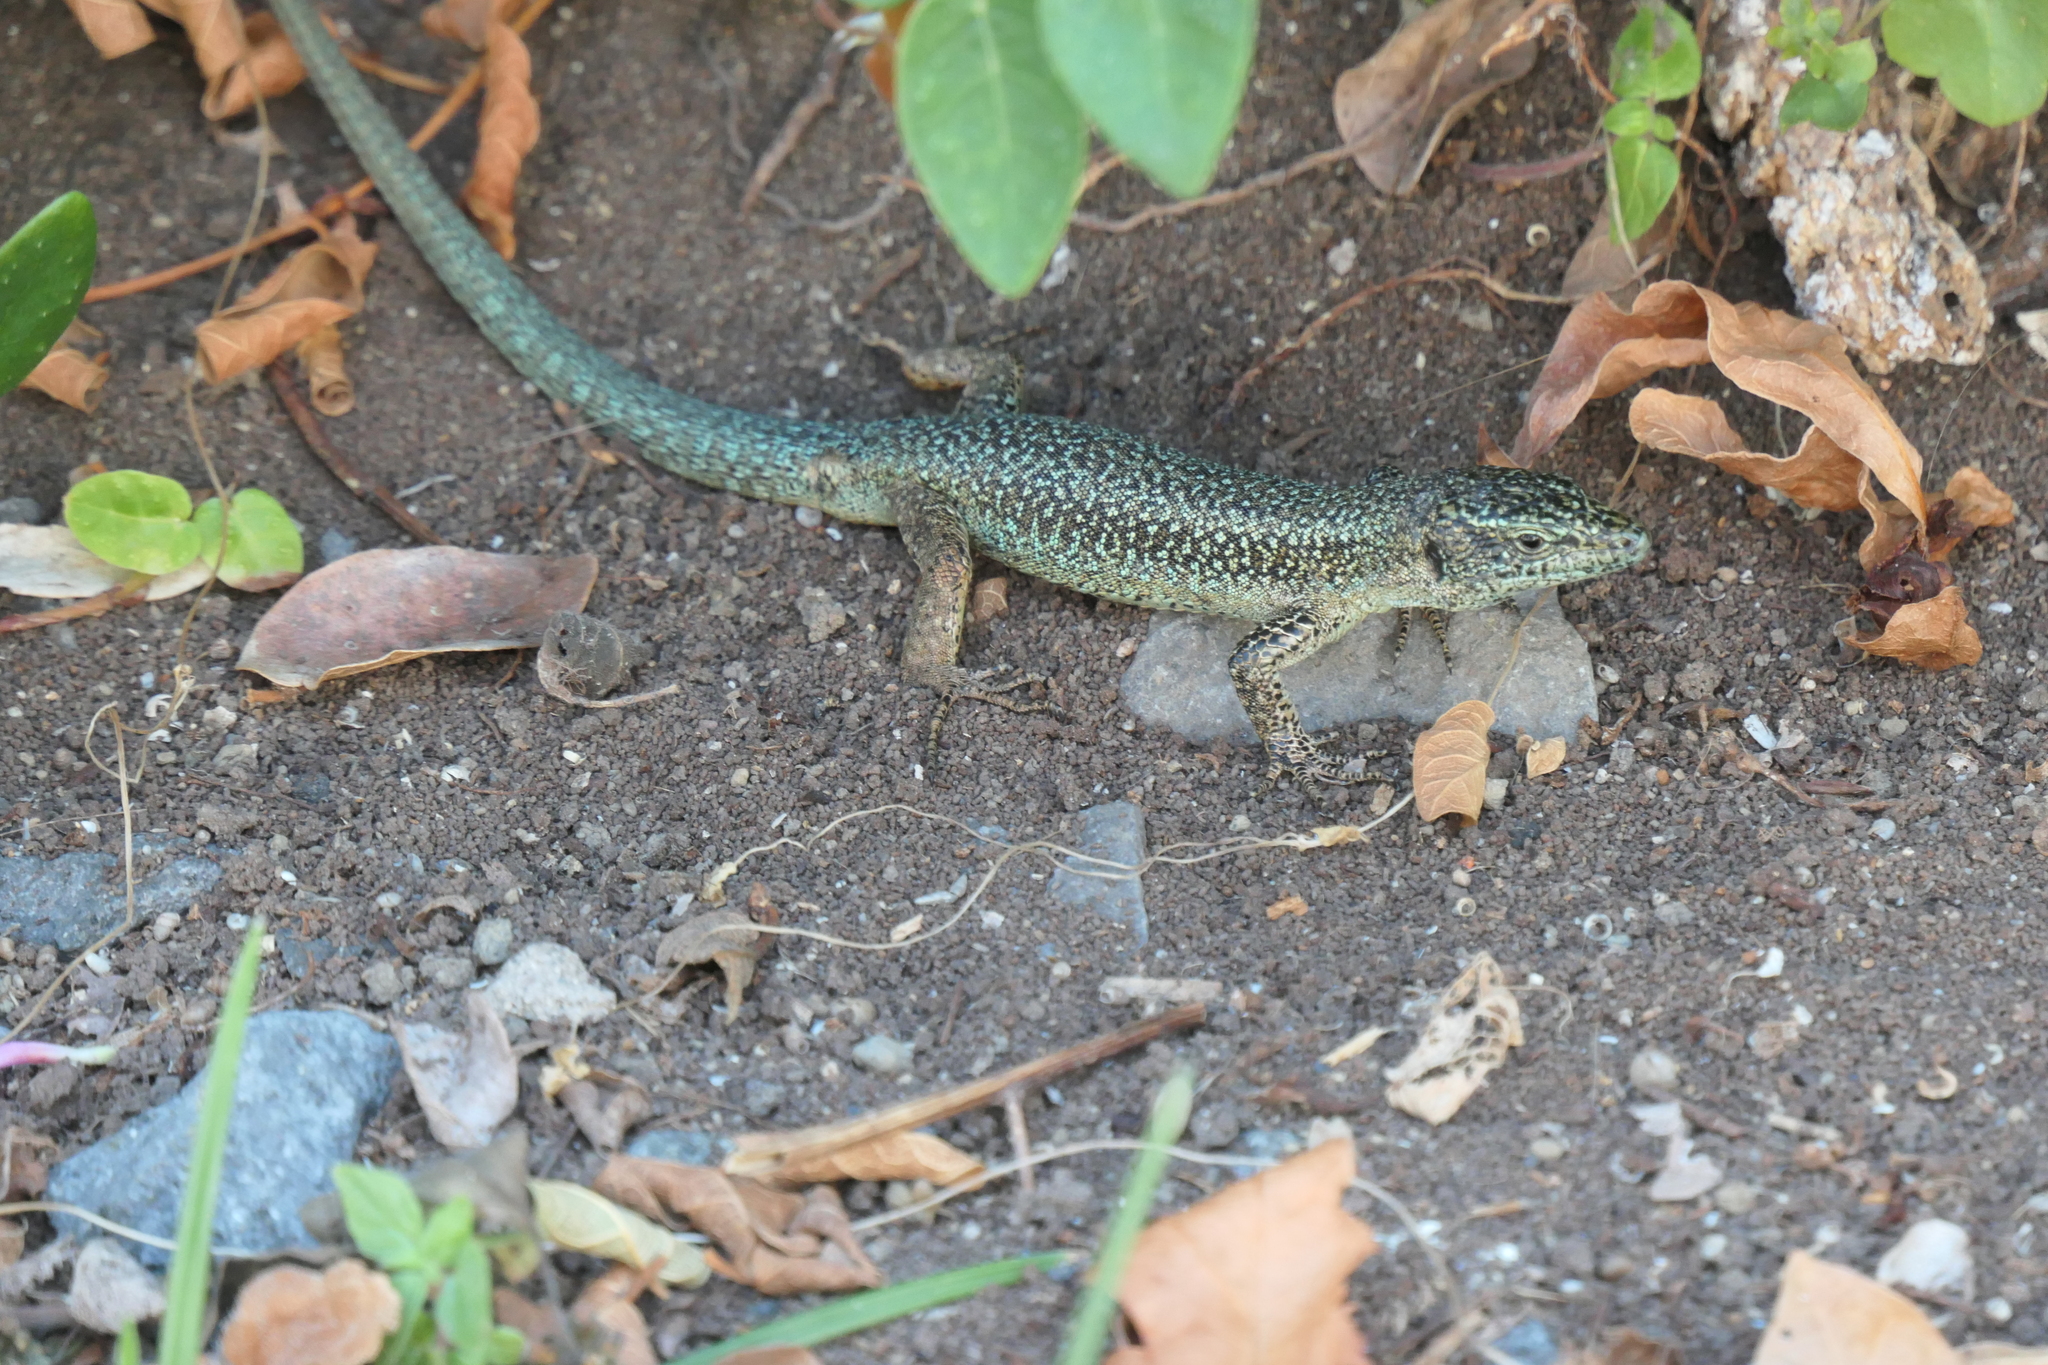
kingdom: Animalia
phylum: Chordata
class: Squamata
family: Lacertidae
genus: Teira
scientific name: Teira dugesii
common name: Madeira lizard
